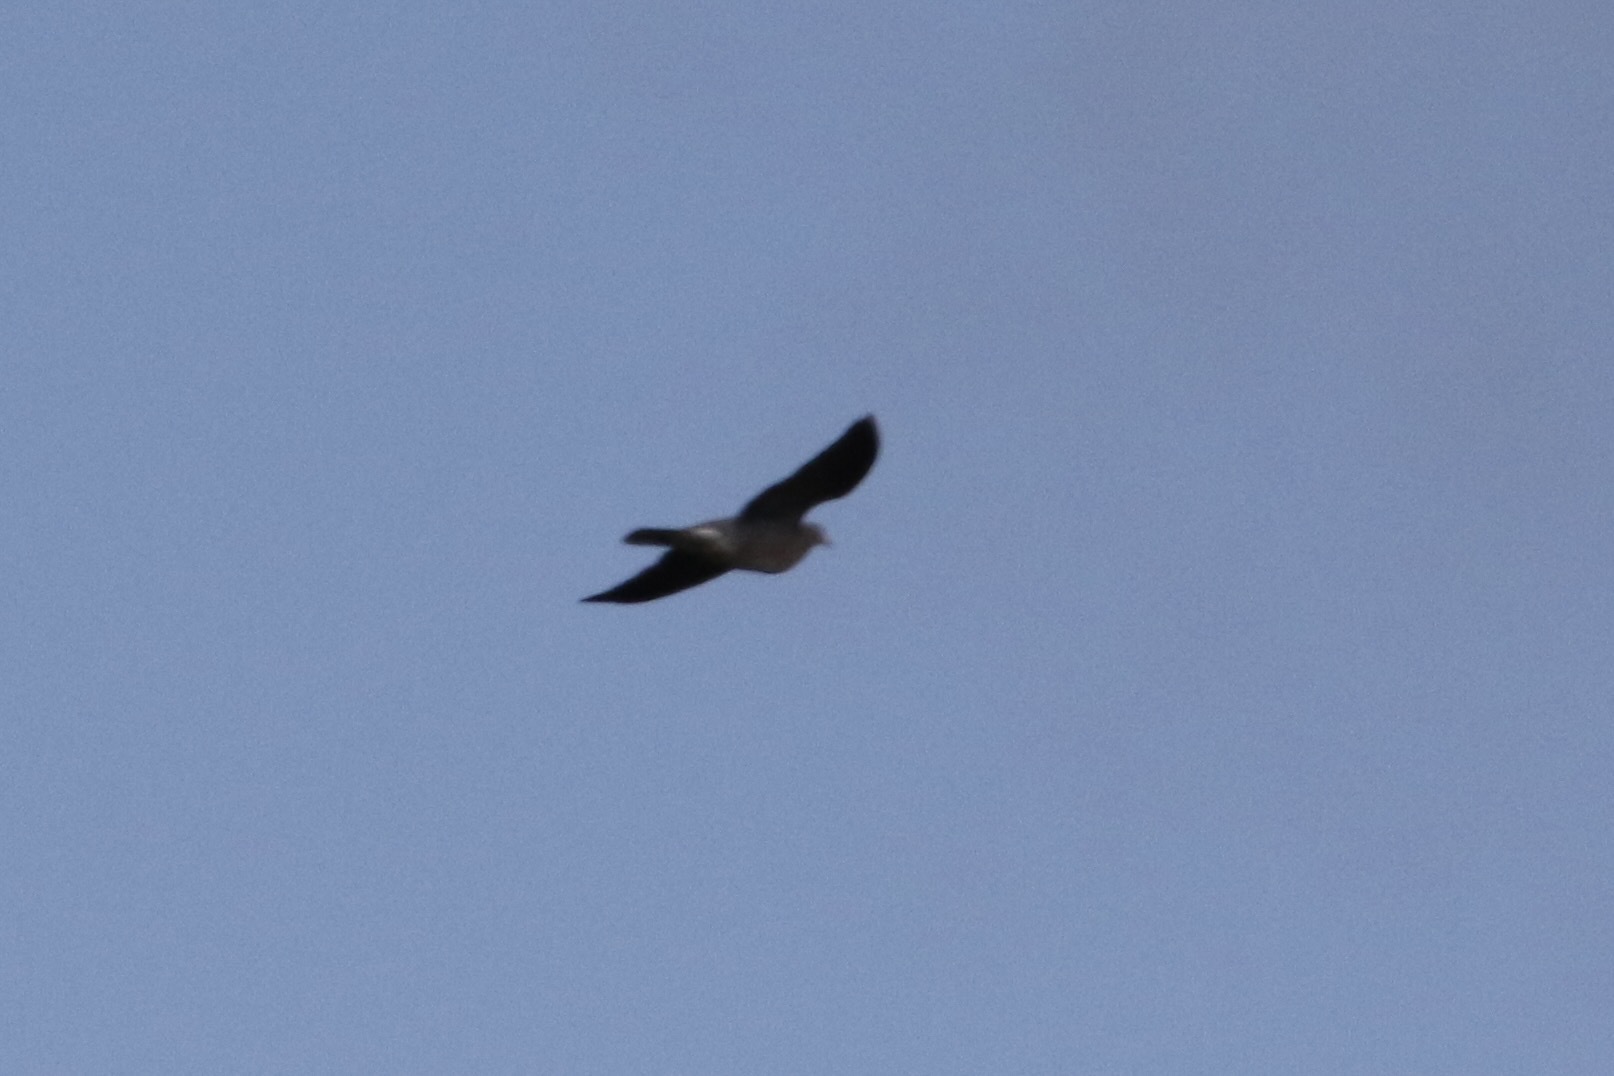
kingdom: Animalia
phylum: Chordata
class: Aves
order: Columbiformes
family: Columbidae
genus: Patagioenas
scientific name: Patagioenas fasciata
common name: Band-tailed pigeon
